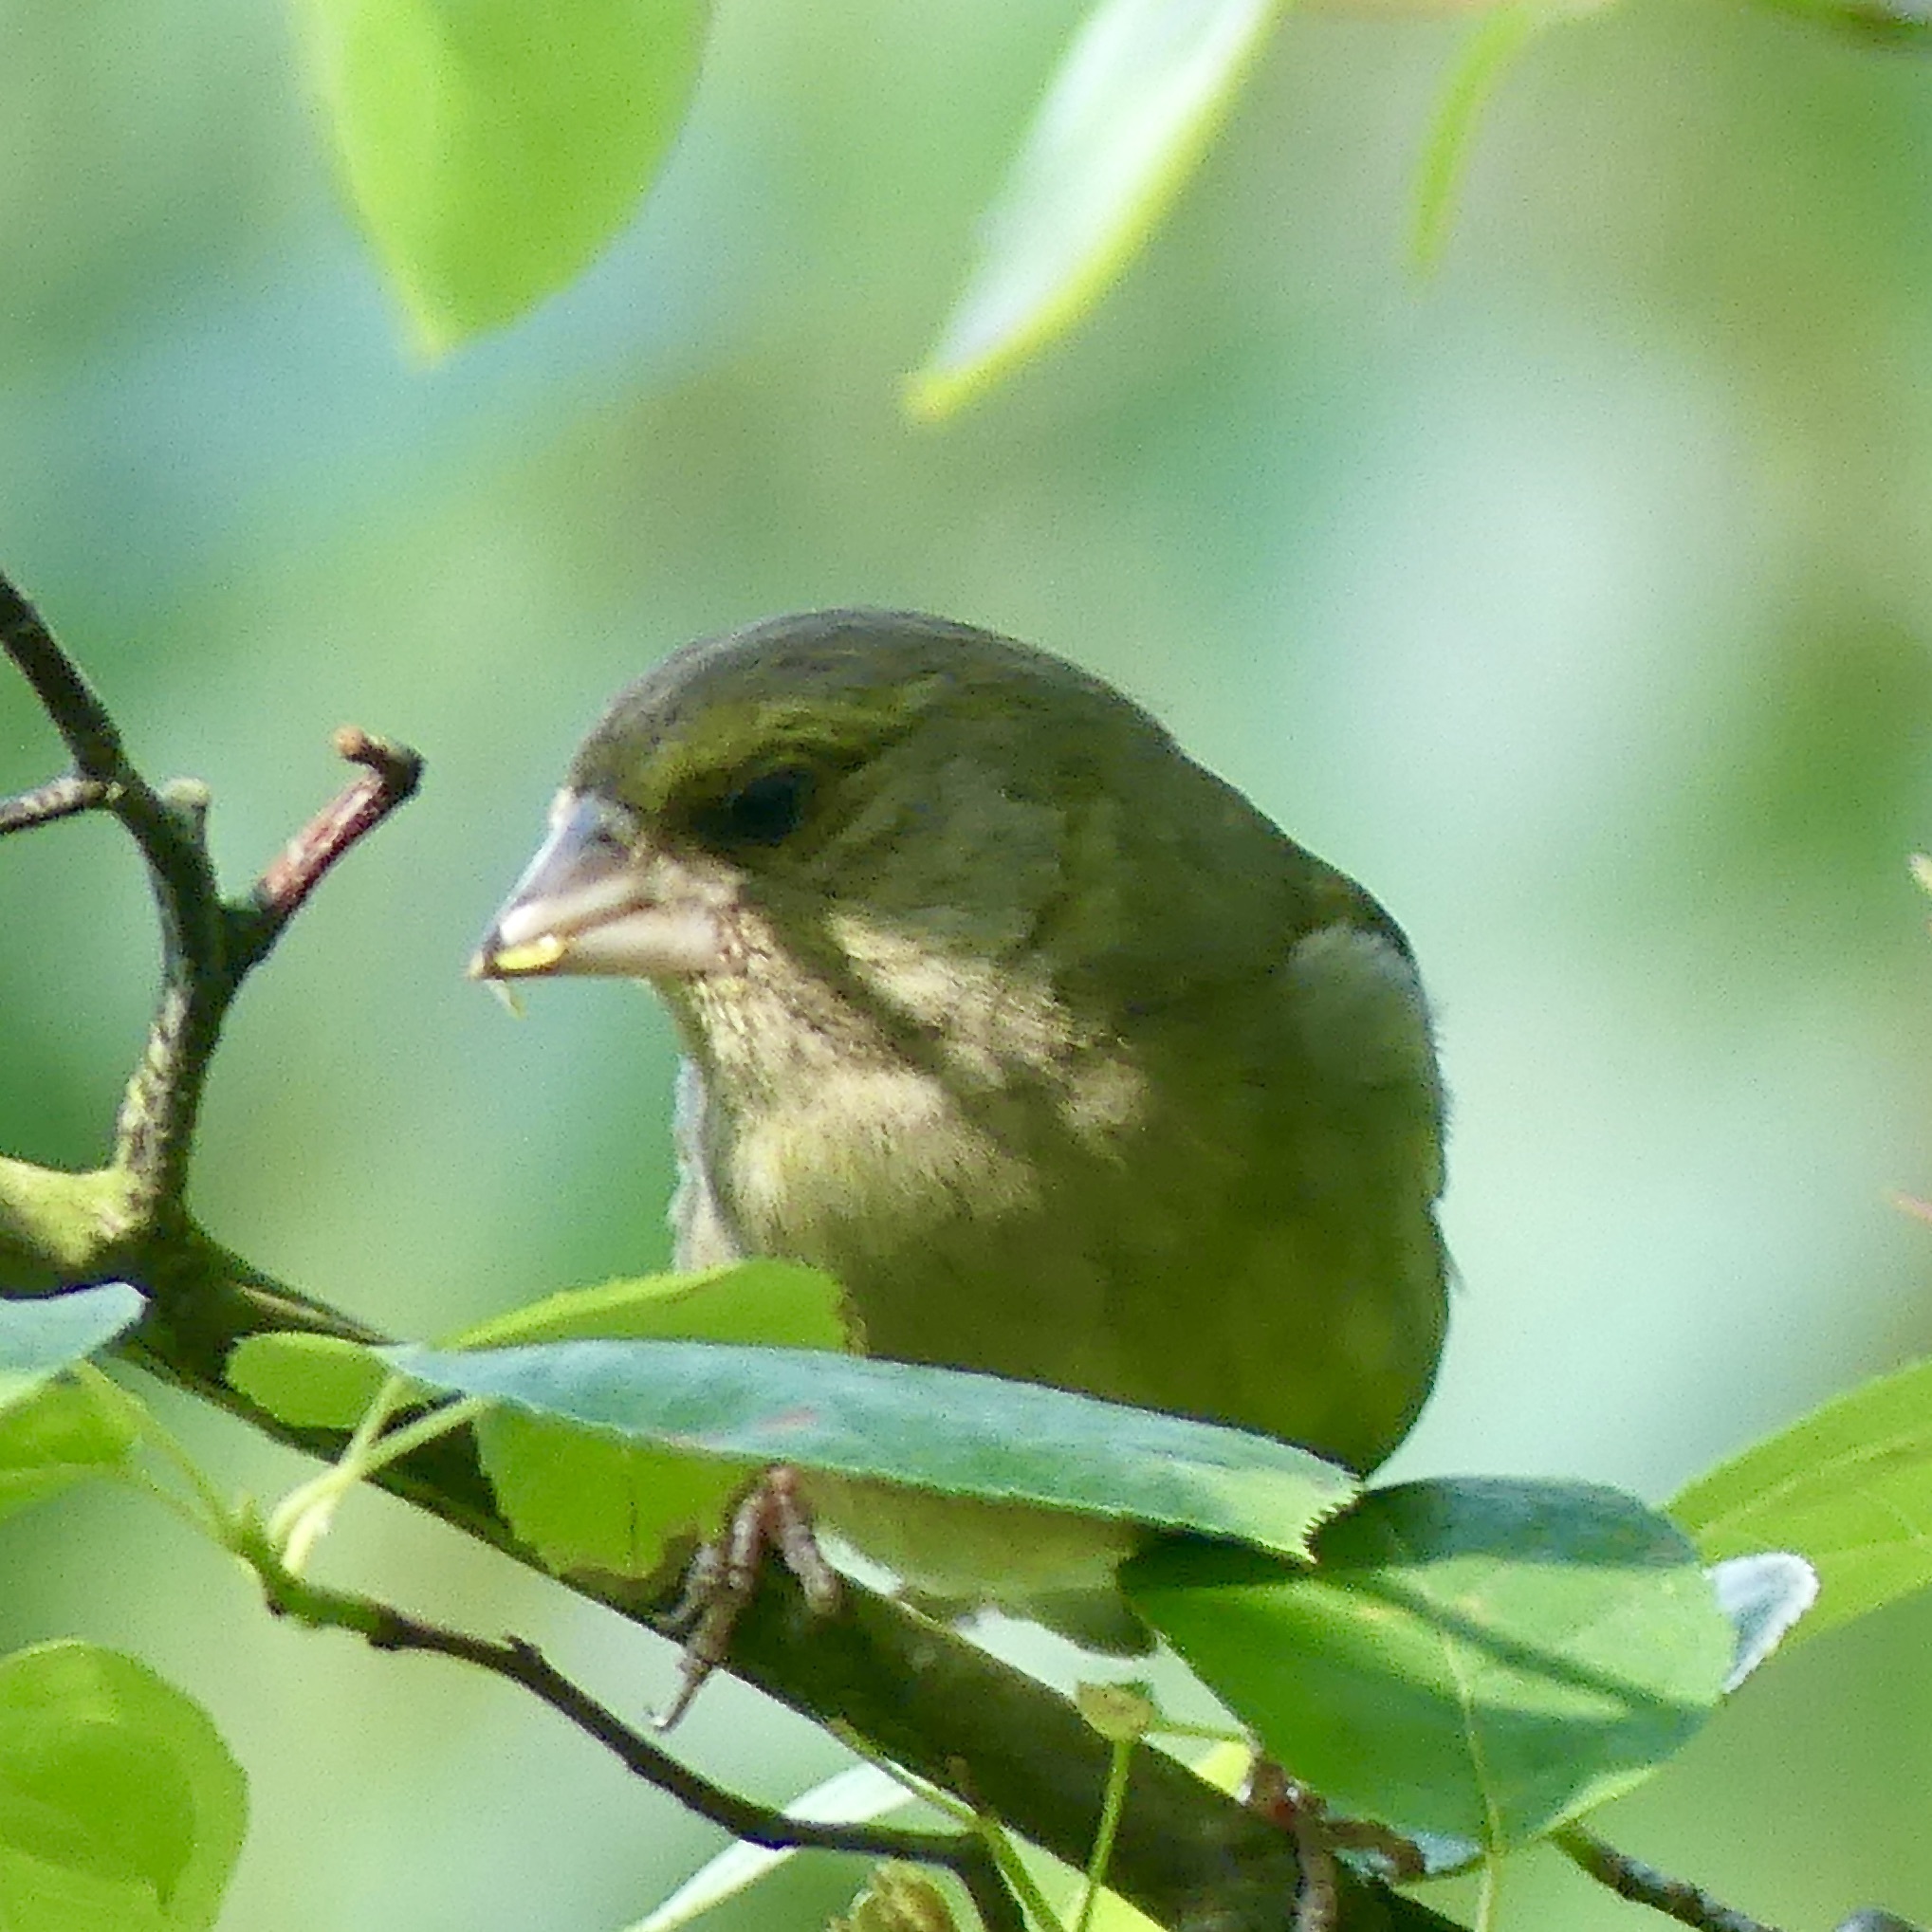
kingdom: Plantae
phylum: Tracheophyta
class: Liliopsida
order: Poales
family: Poaceae
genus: Chloris
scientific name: Chloris chloris
